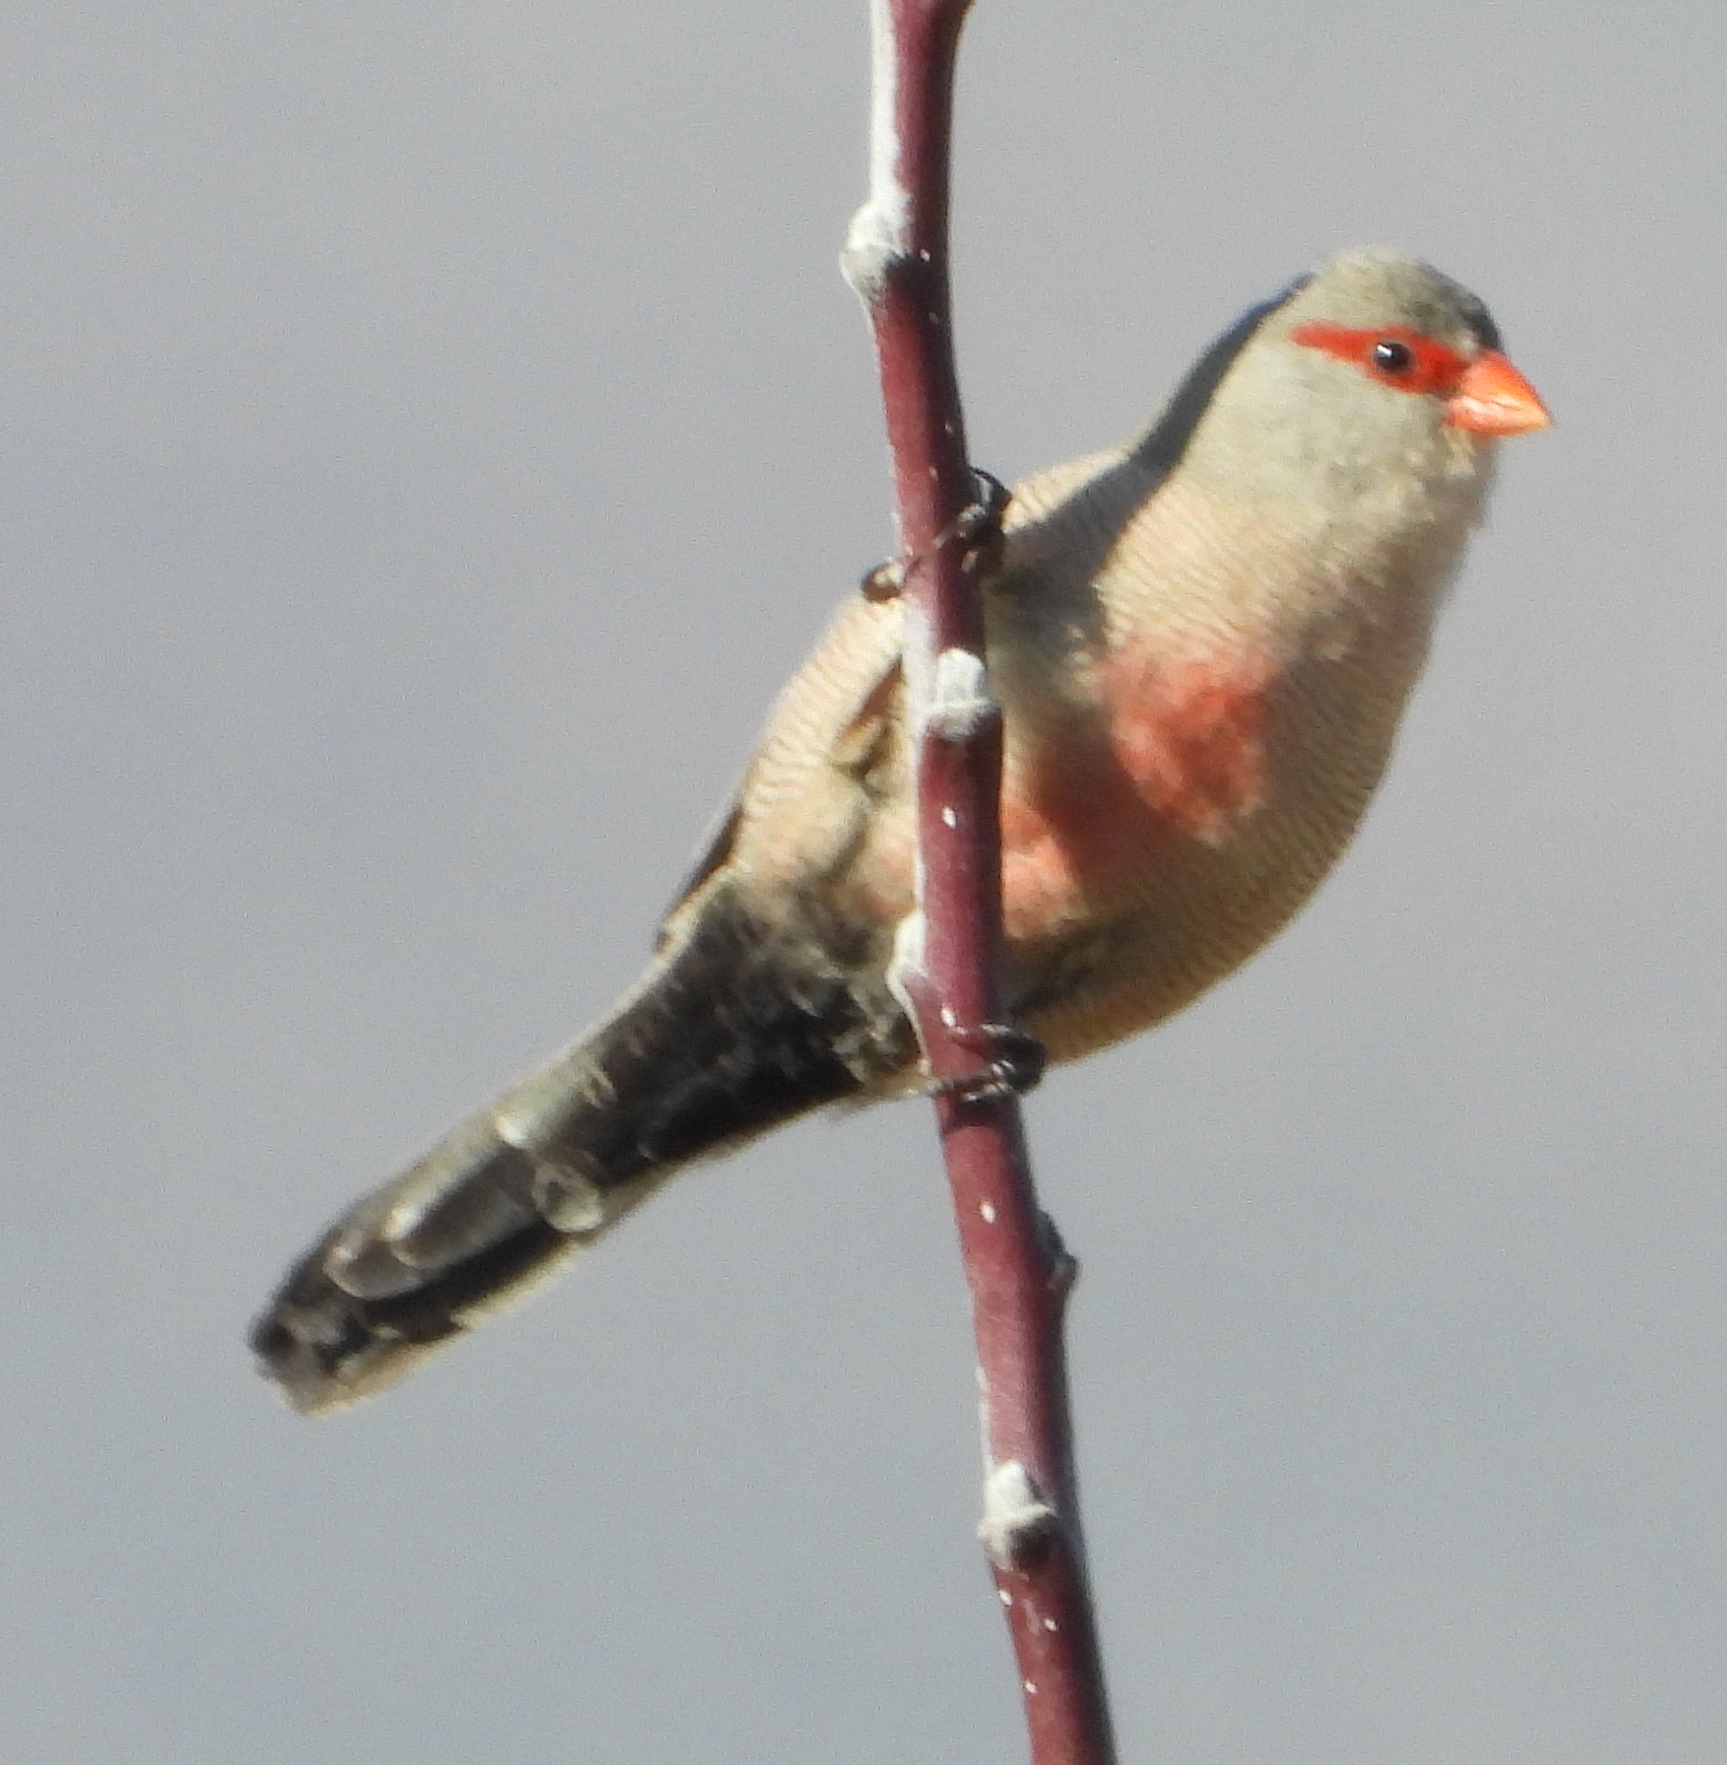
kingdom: Animalia
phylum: Chordata
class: Aves
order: Passeriformes
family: Estrildidae
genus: Estrilda
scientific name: Estrilda astrild
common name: Common waxbill
